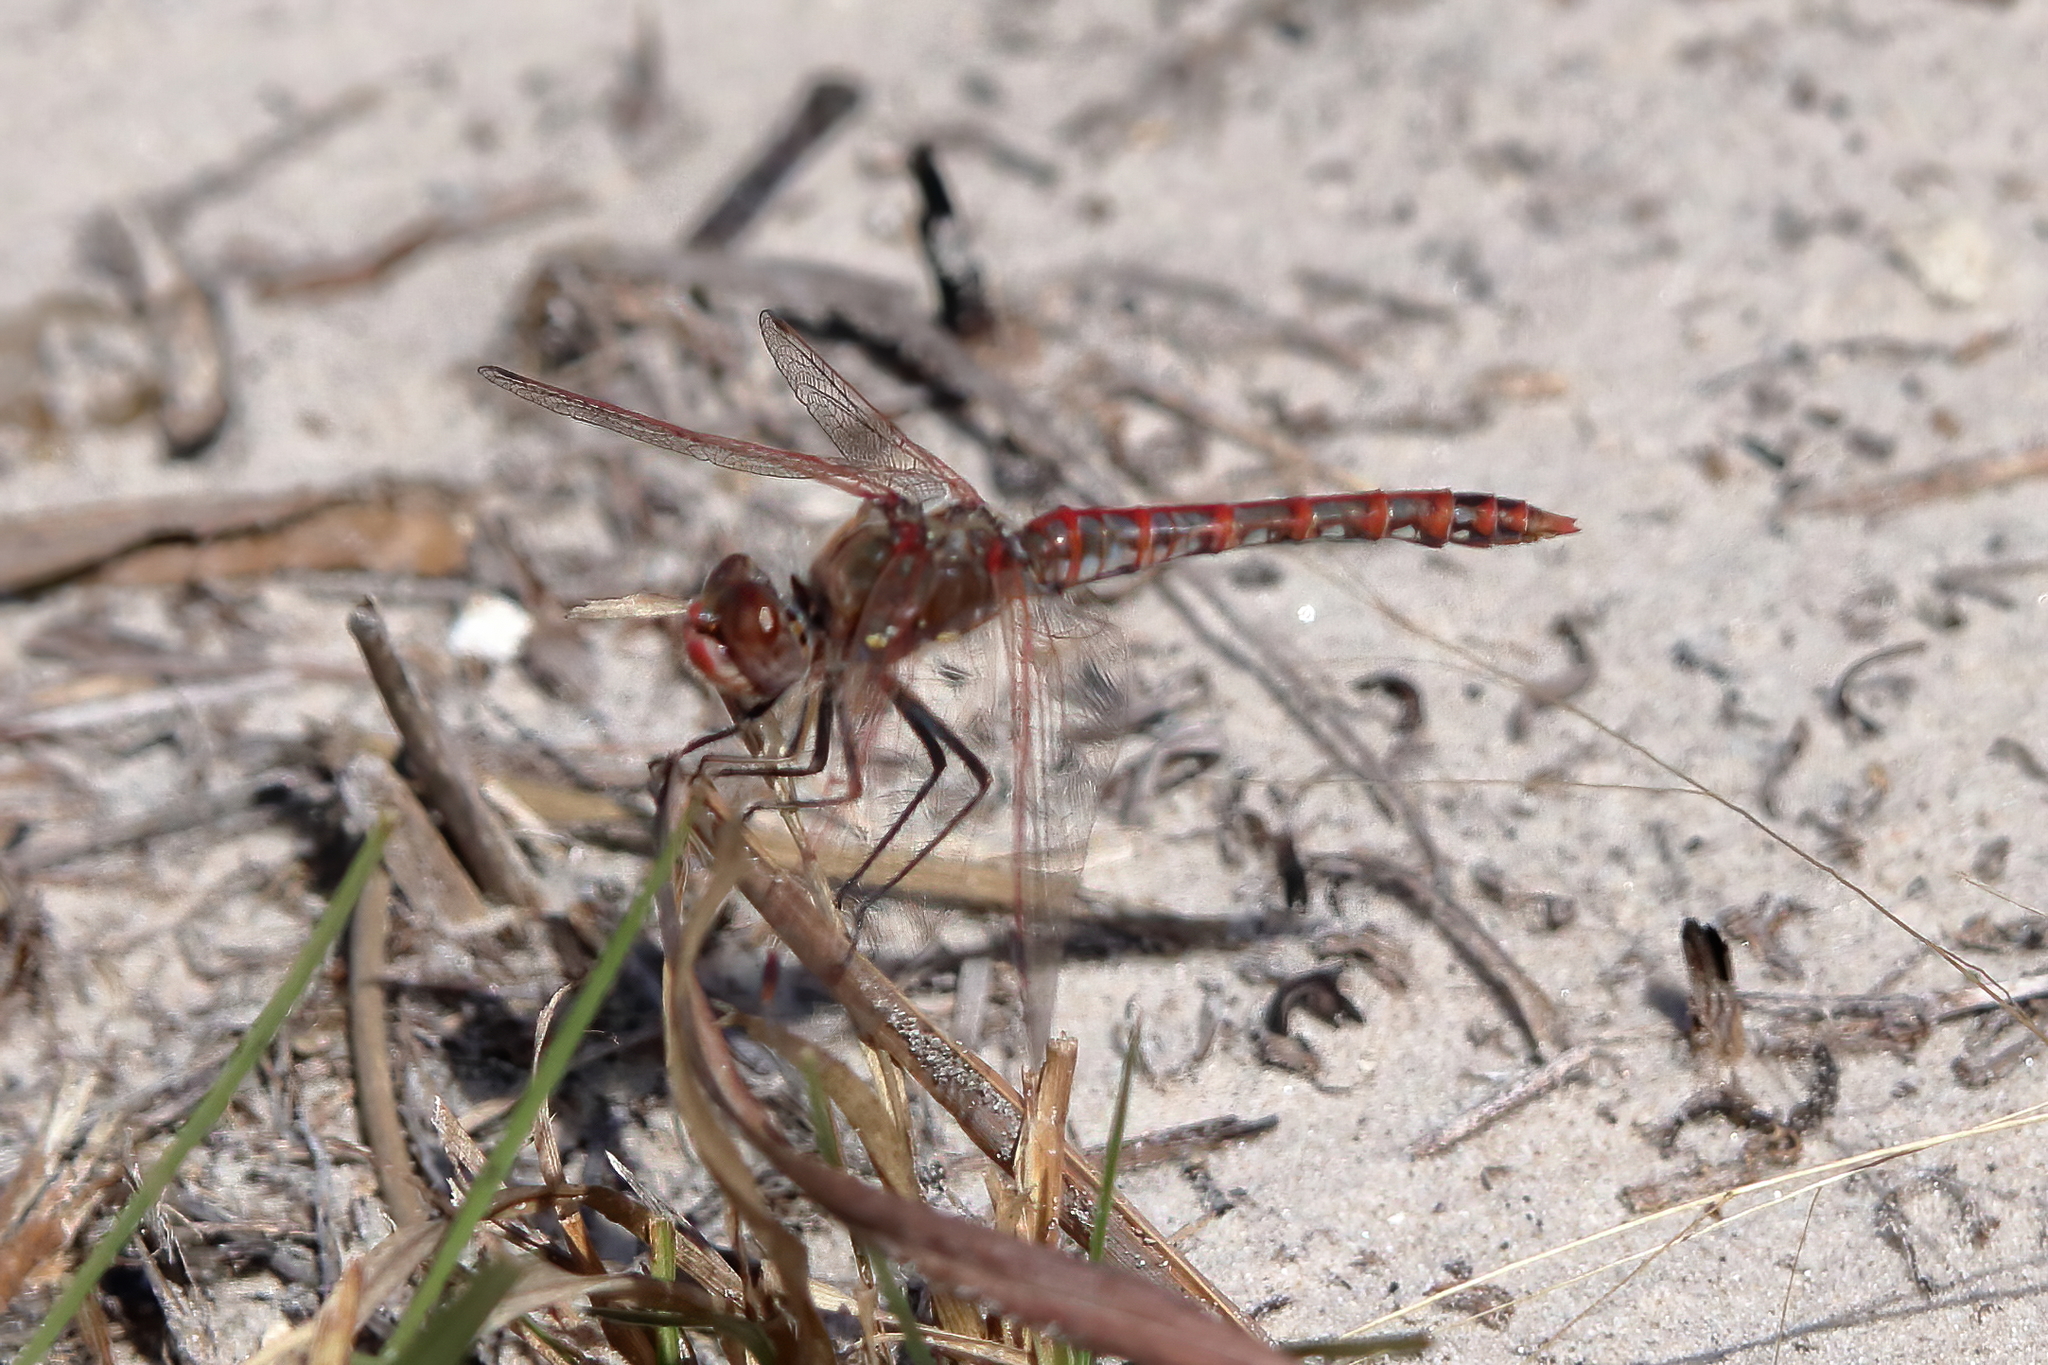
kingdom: Animalia
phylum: Arthropoda
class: Insecta
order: Odonata
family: Libellulidae
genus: Sympetrum
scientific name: Sympetrum corruptum
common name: Variegated meadowhawk
